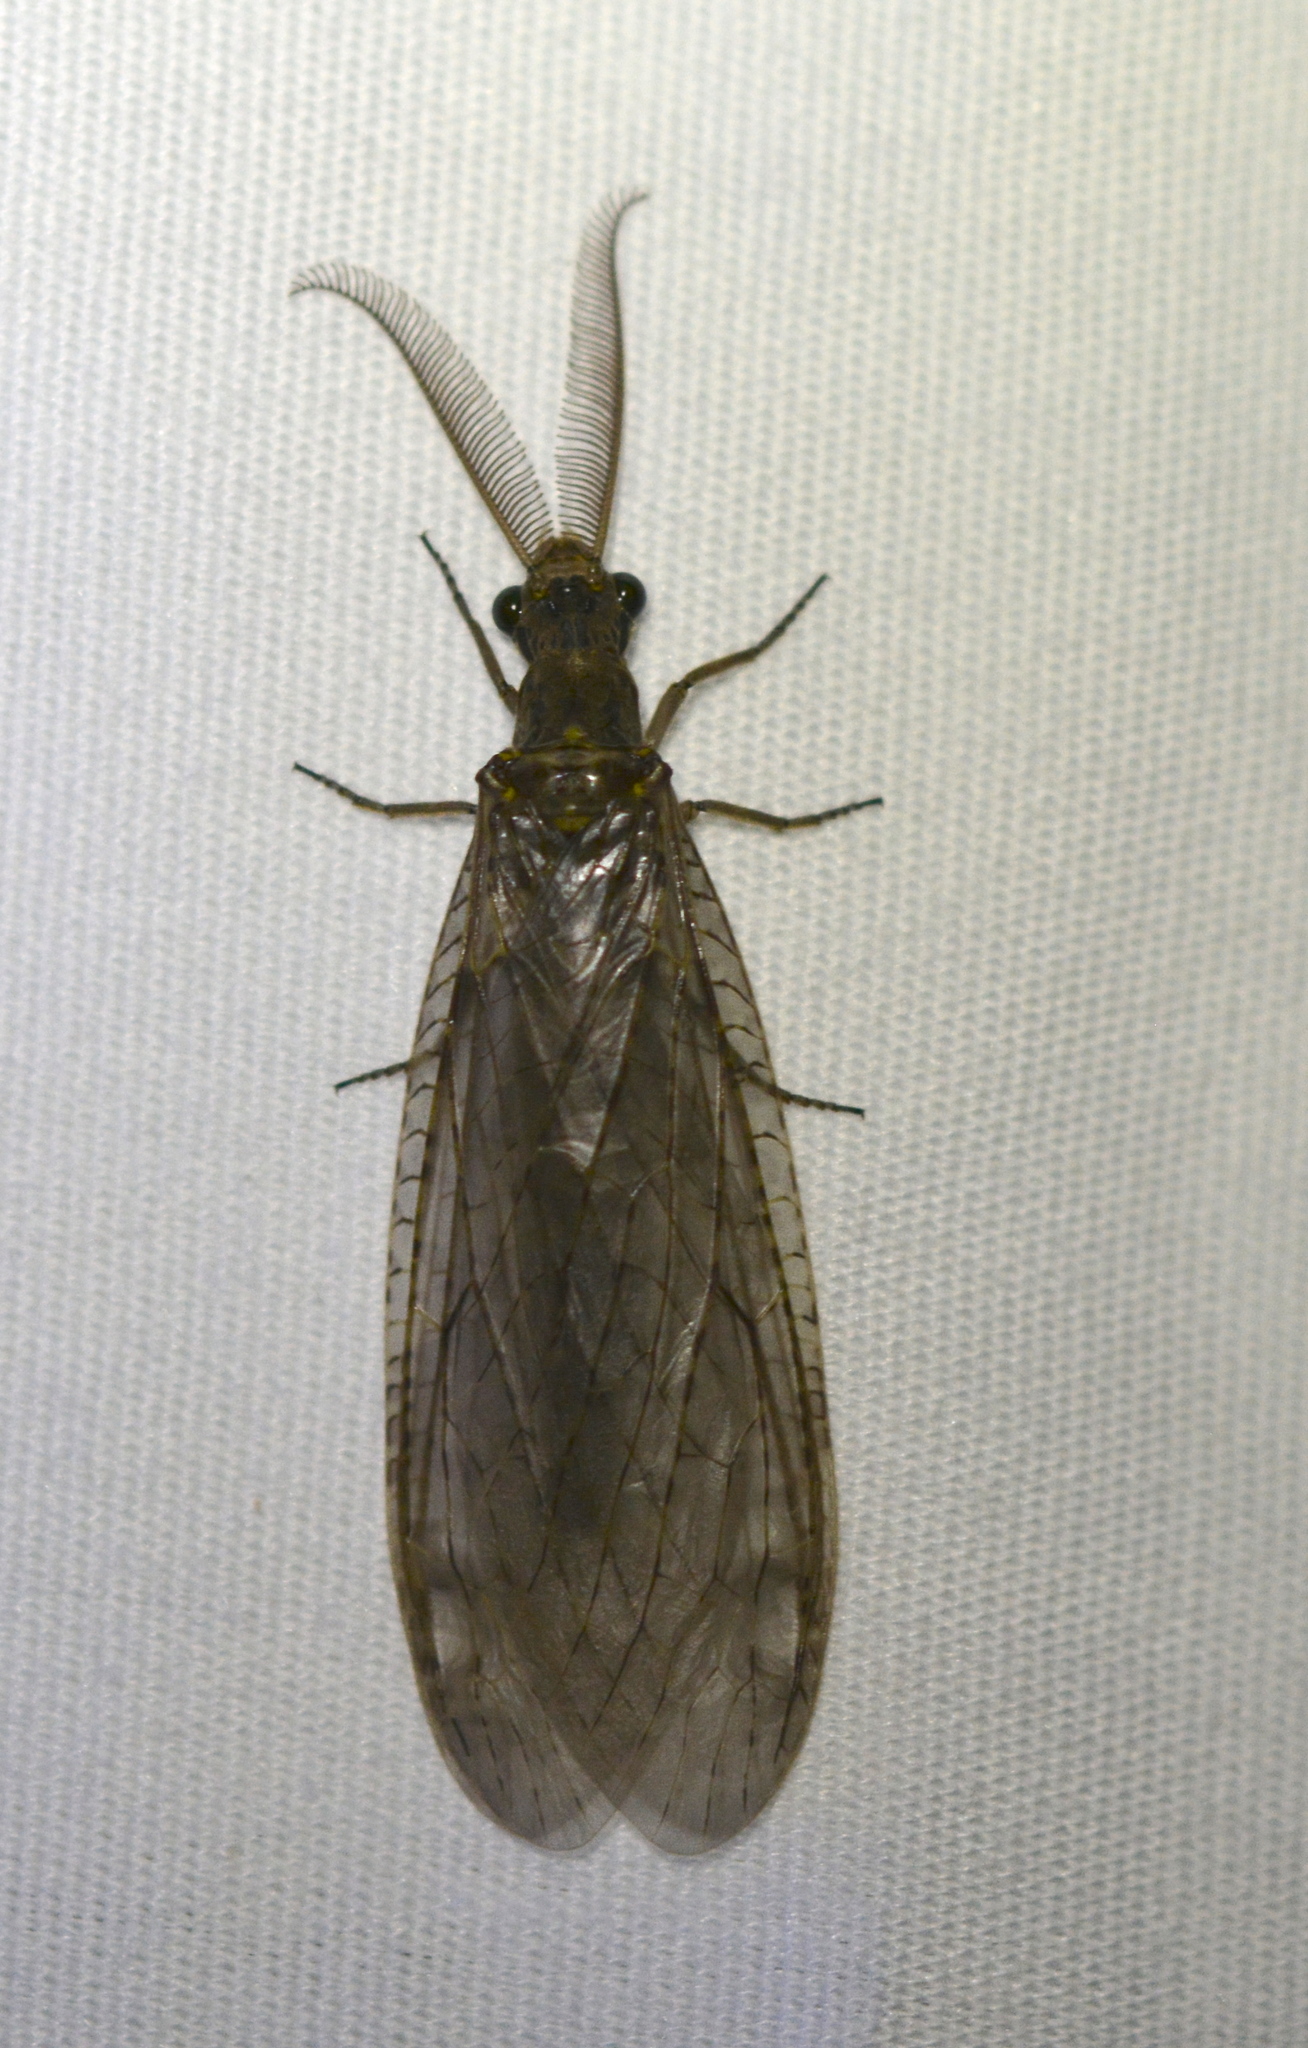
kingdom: Animalia
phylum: Arthropoda
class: Insecta
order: Megaloptera
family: Corydalidae
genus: Chauliodes
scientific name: Chauliodes rastricornis
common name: Spring fishfly
